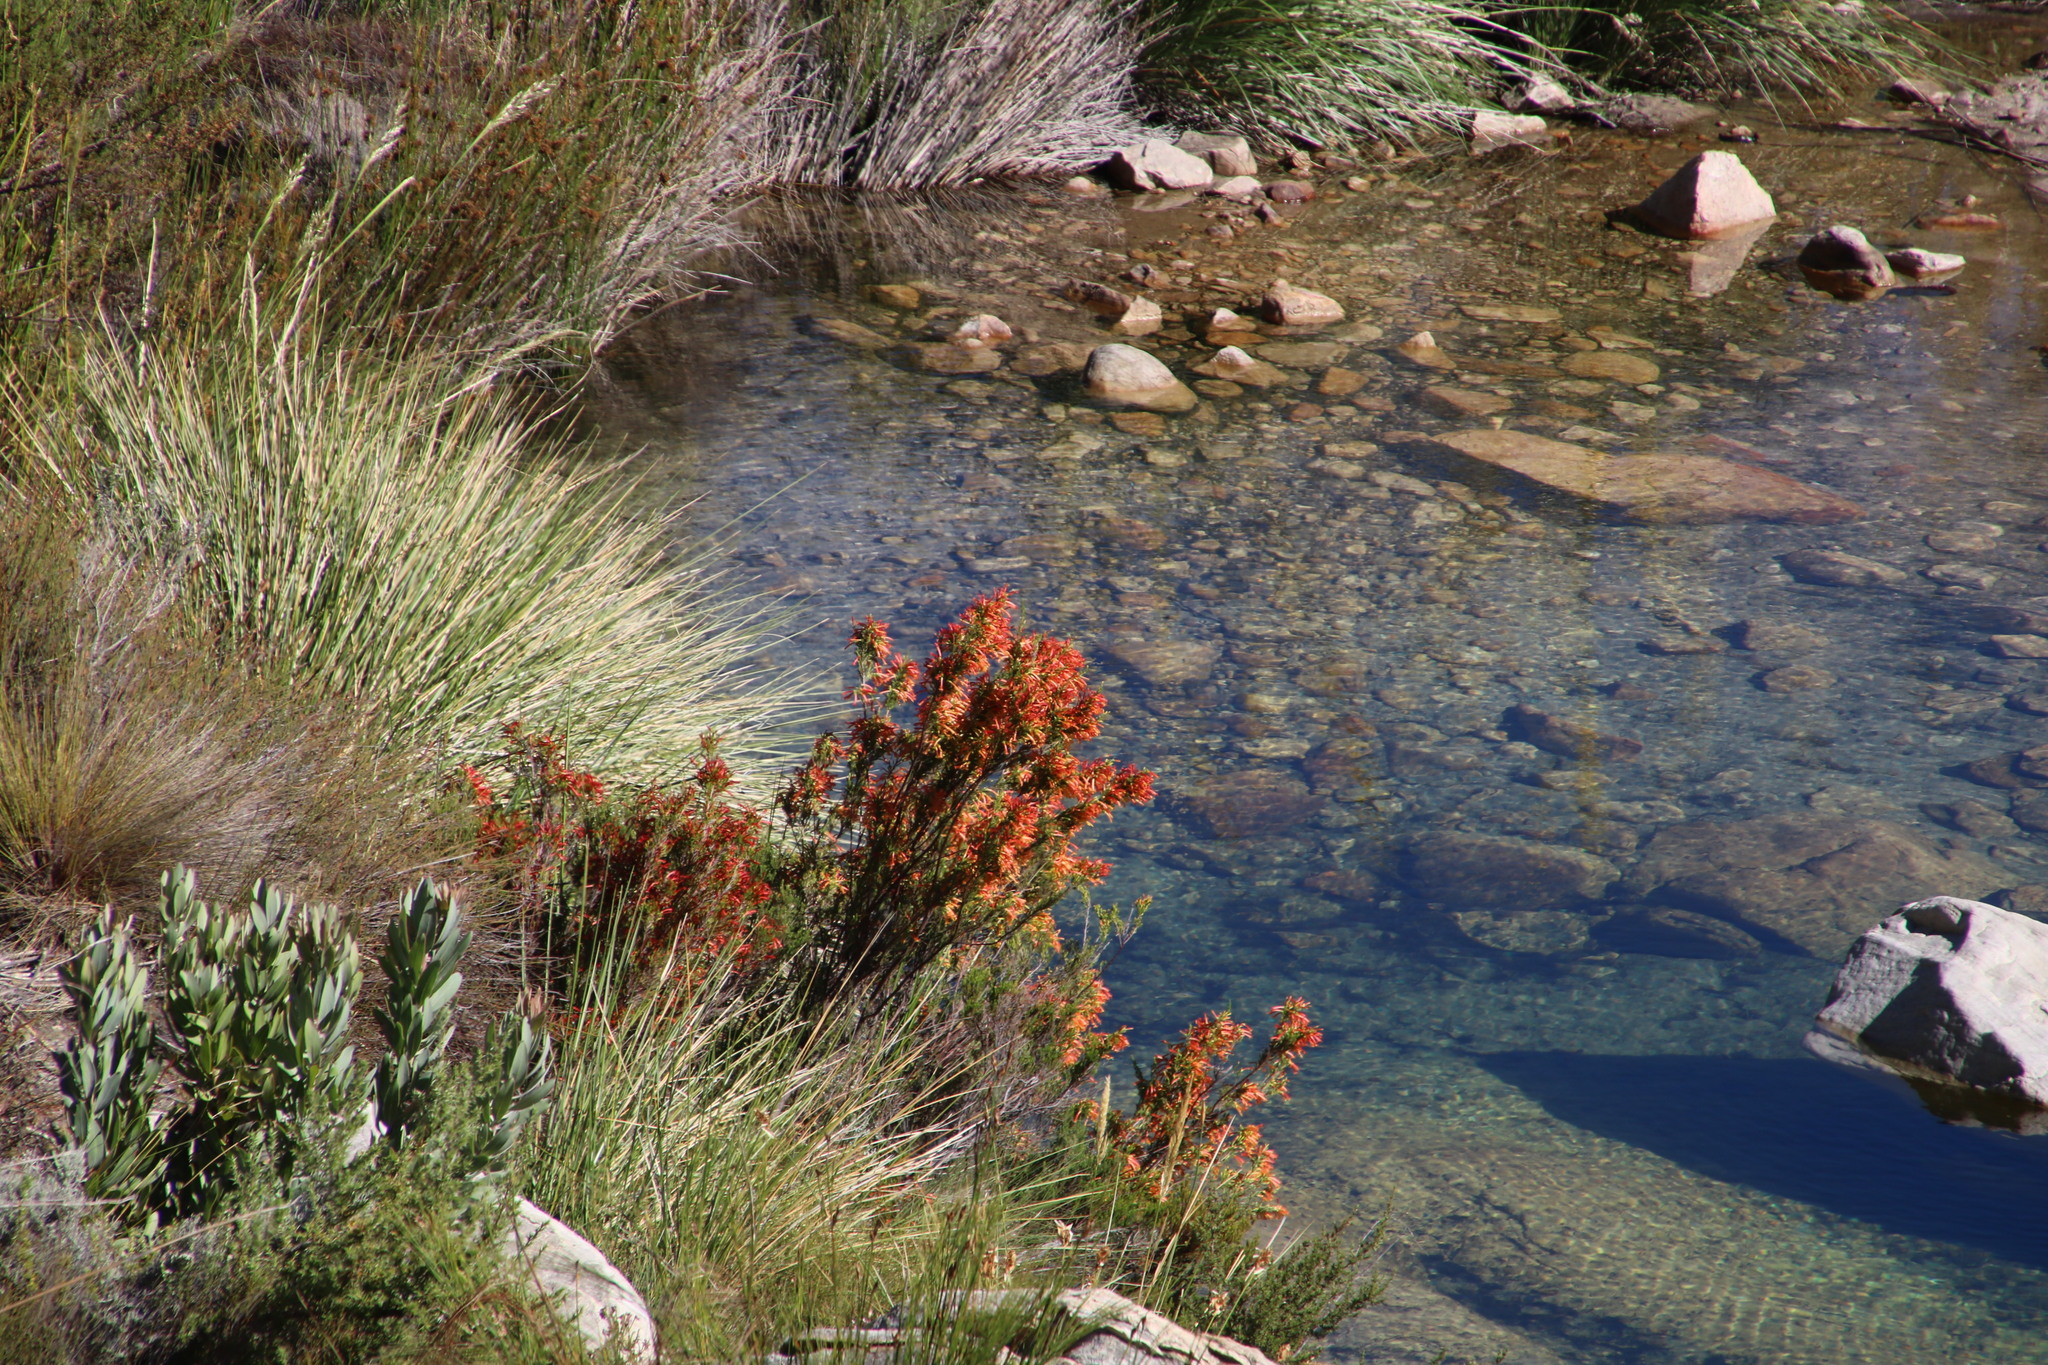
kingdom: Plantae
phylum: Tracheophyta
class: Magnoliopsida
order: Ericales
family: Ericaceae
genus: Erica
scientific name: Erica curviflora
